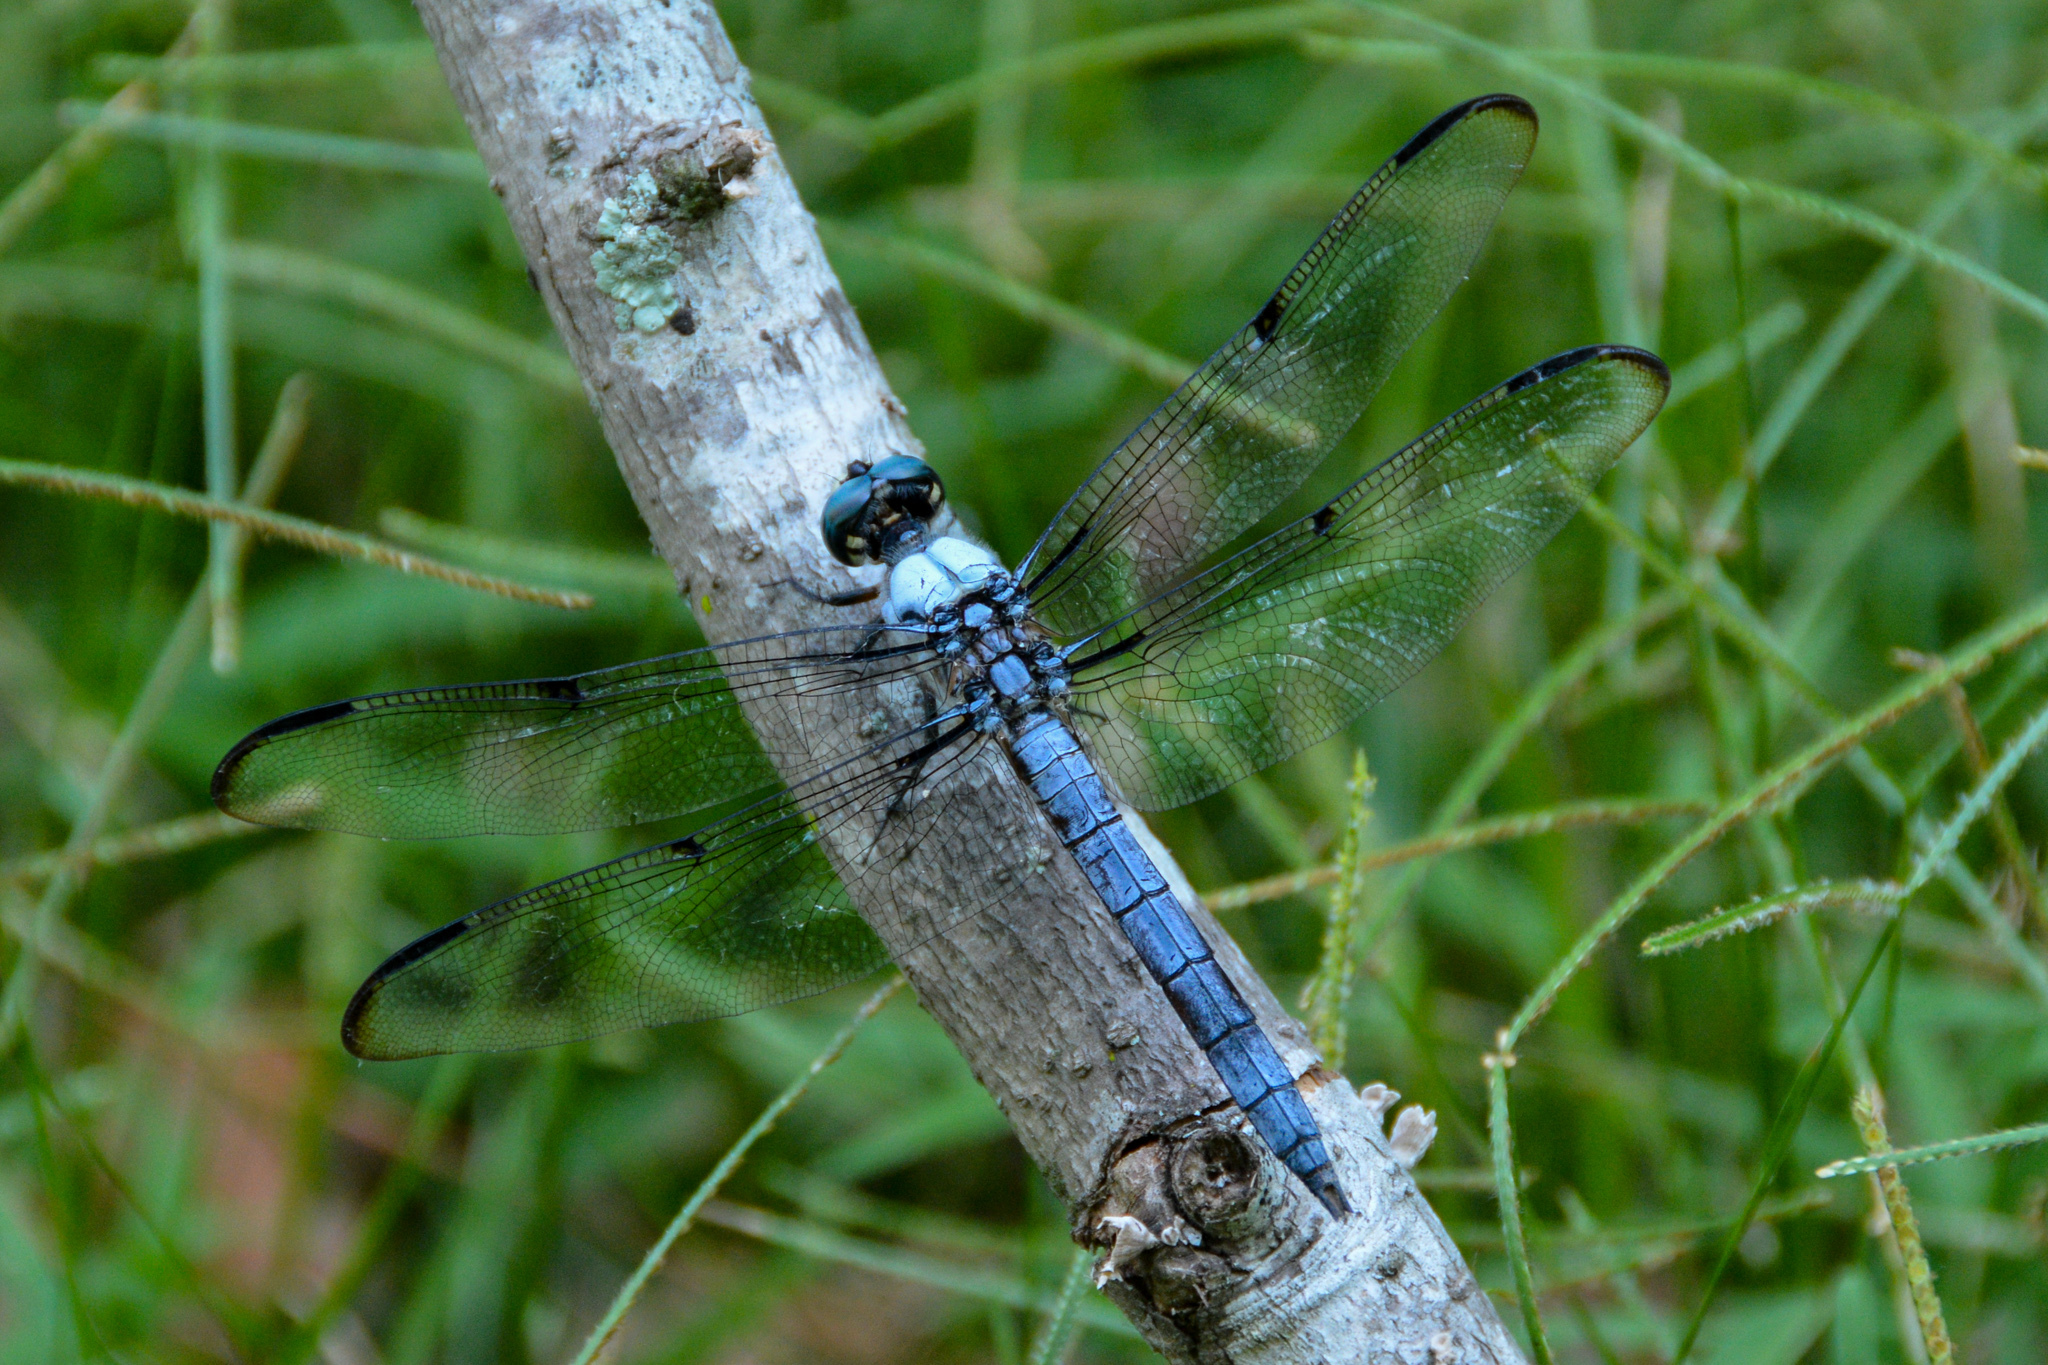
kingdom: Animalia
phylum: Arthropoda
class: Insecta
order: Odonata
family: Libellulidae
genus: Libellula
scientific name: Libellula vibrans
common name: Great blue skimmer
